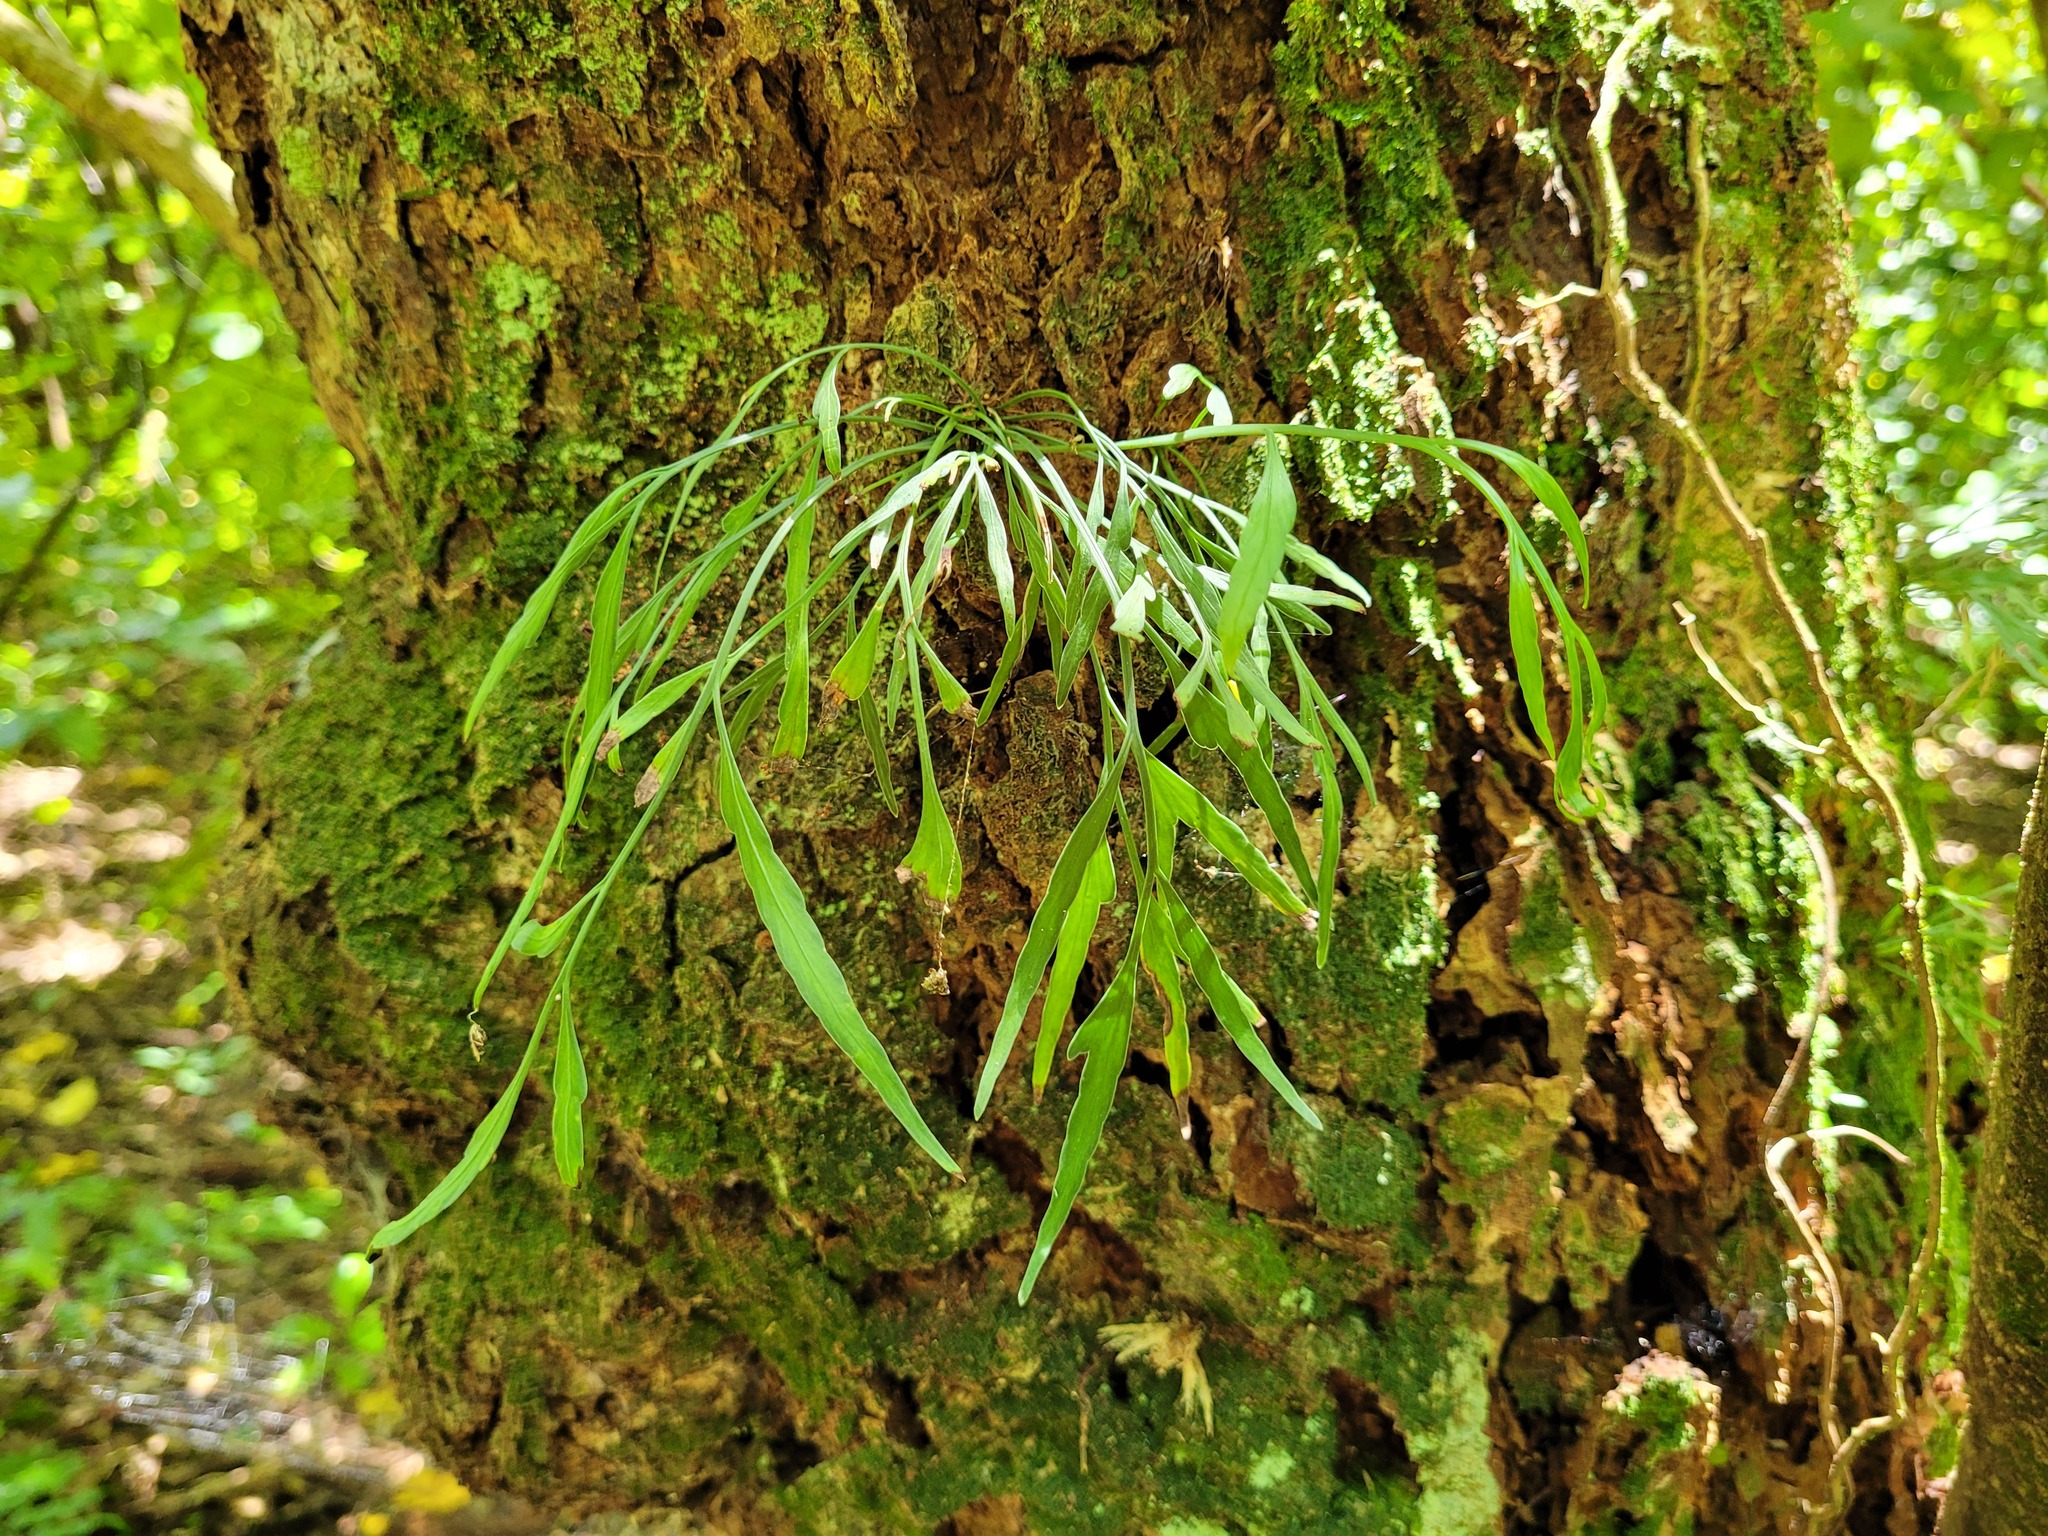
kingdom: Plantae
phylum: Tracheophyta
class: Polypodiopsida
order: Polypodiales
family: Aspleniaceae
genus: Asplenium
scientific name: Asplenium flaccidum
